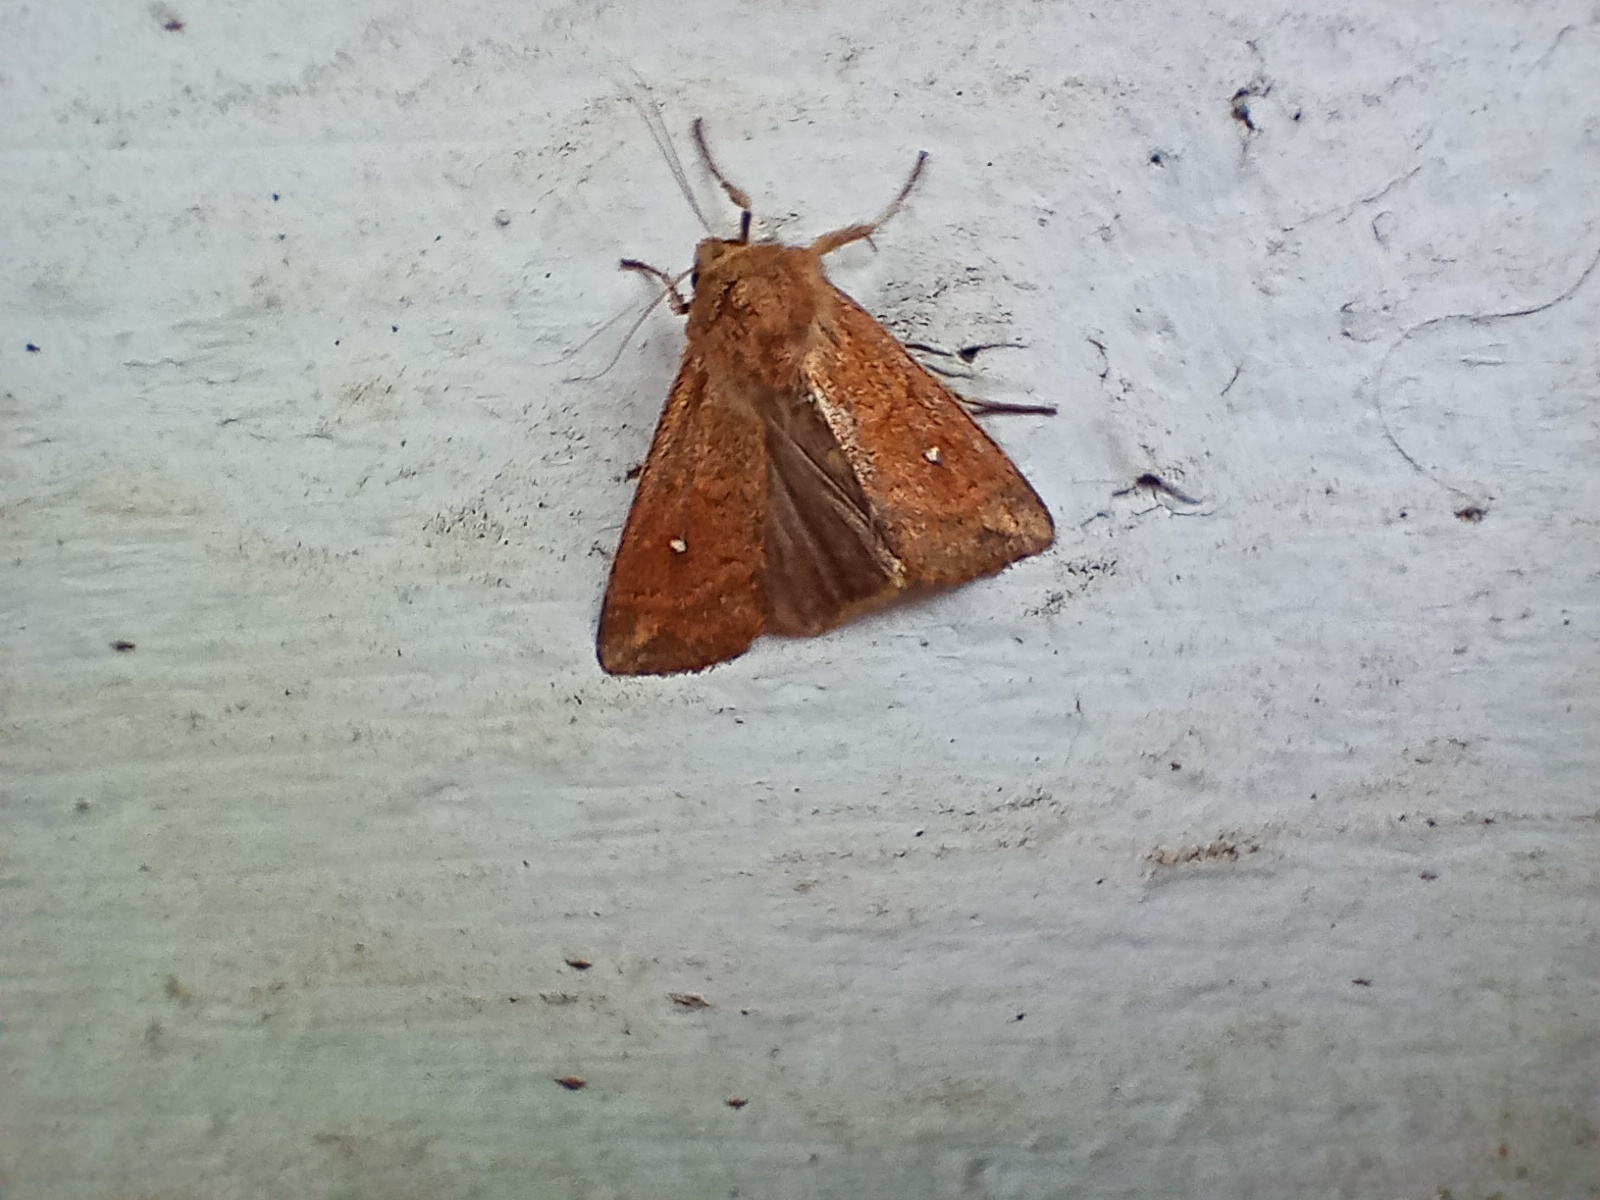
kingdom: Animalia
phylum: Arthropoda
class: Insecta
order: Lepidoptera
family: Noctuidae
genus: Mythimna
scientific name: Mythimna albipuncta
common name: White-point
